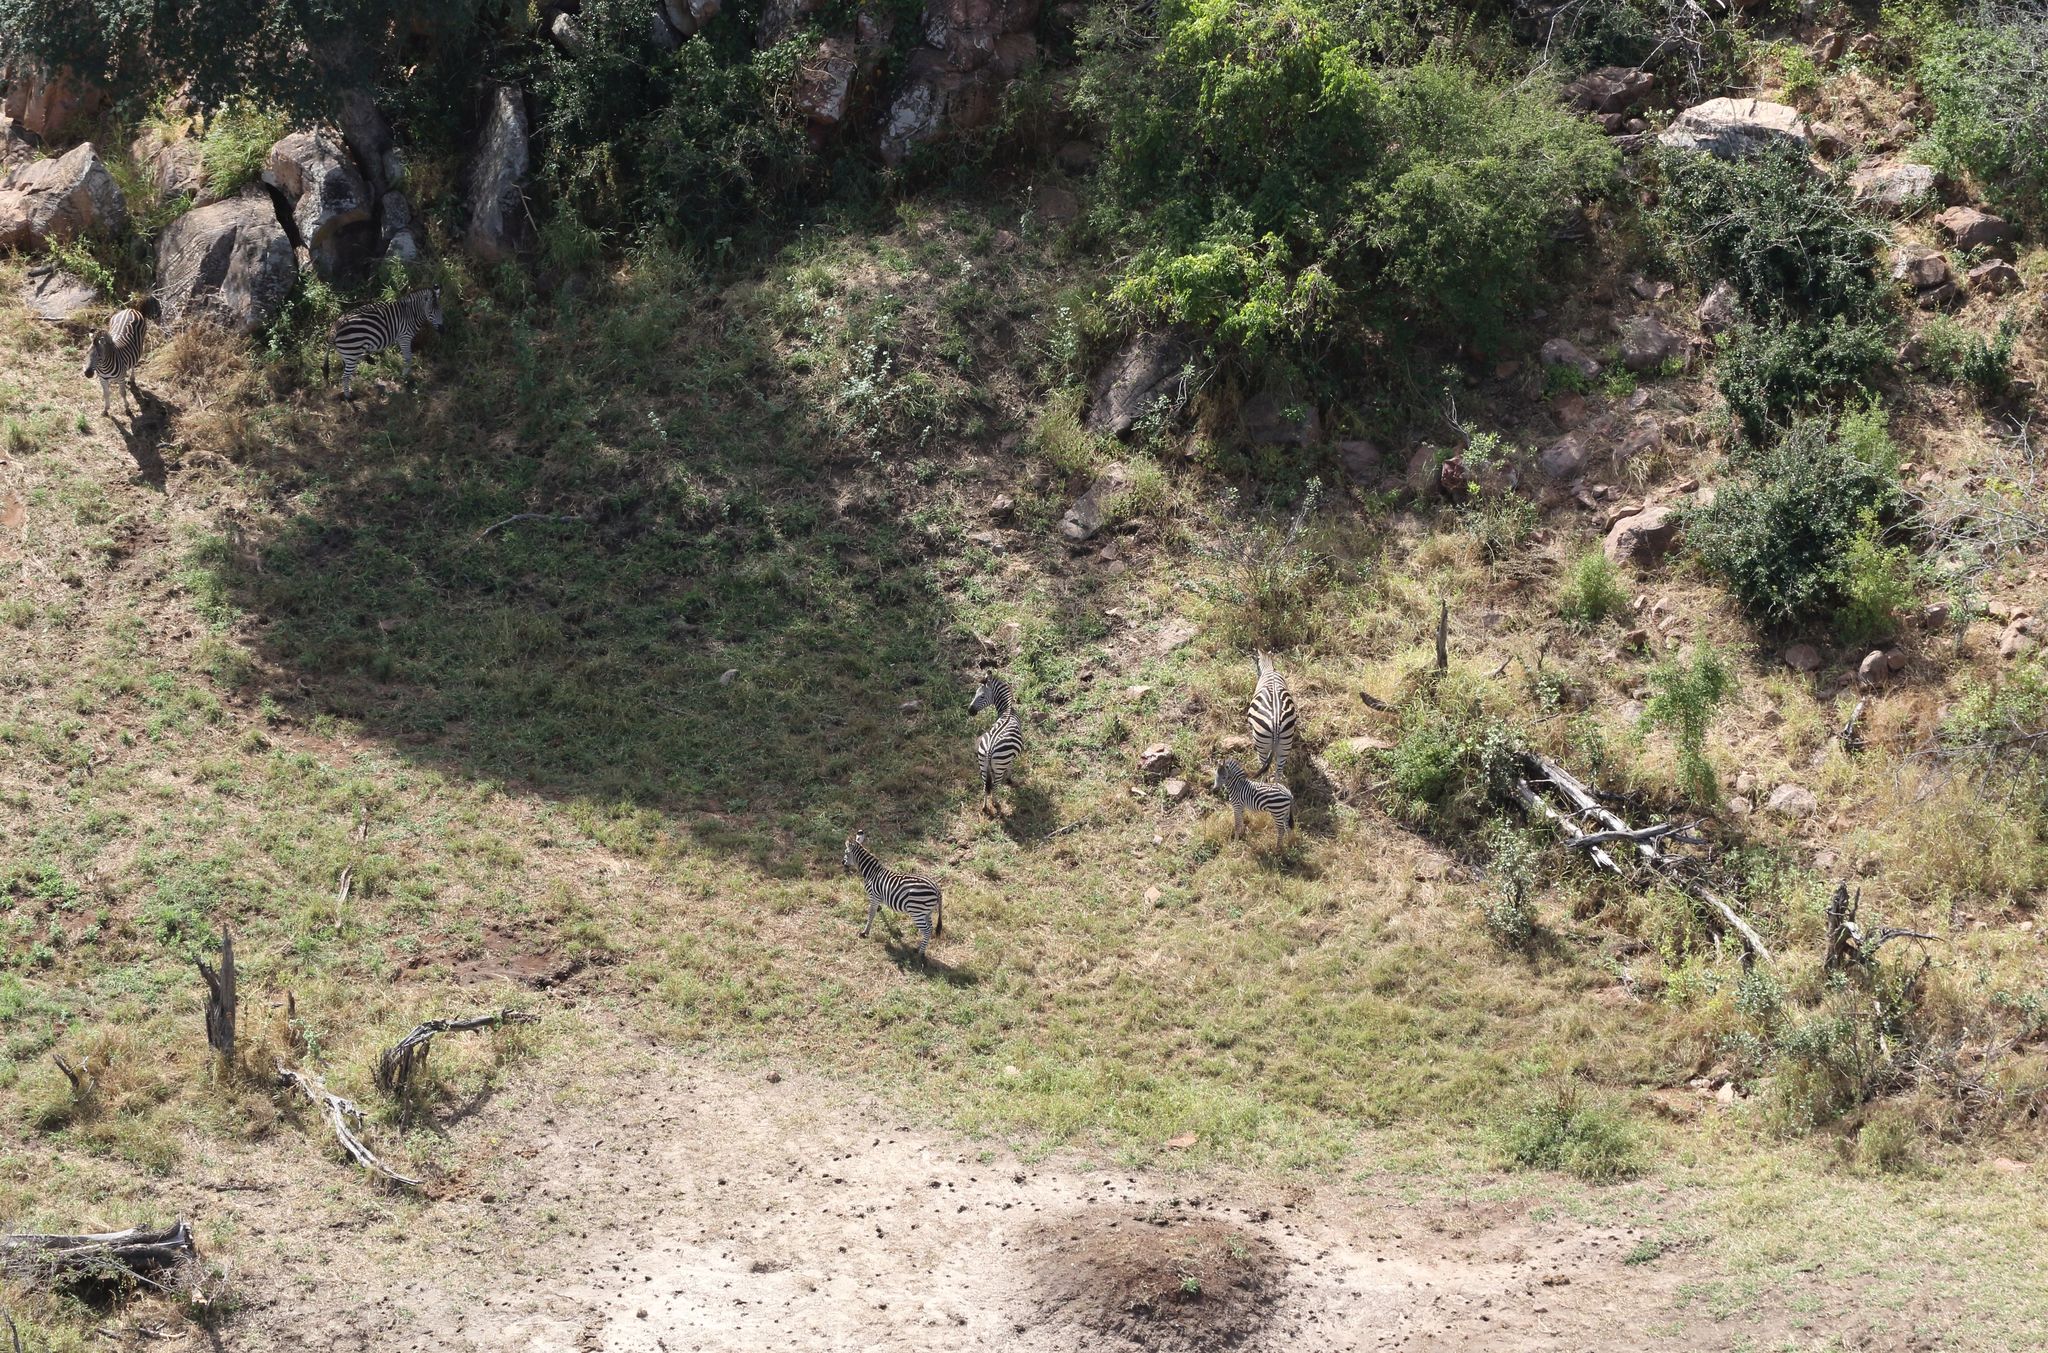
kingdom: Animalia
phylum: Chordata
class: Mammalia
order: Perissodactyla
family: Equidae
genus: Equus
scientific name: Equus quagga
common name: Plains zebra
